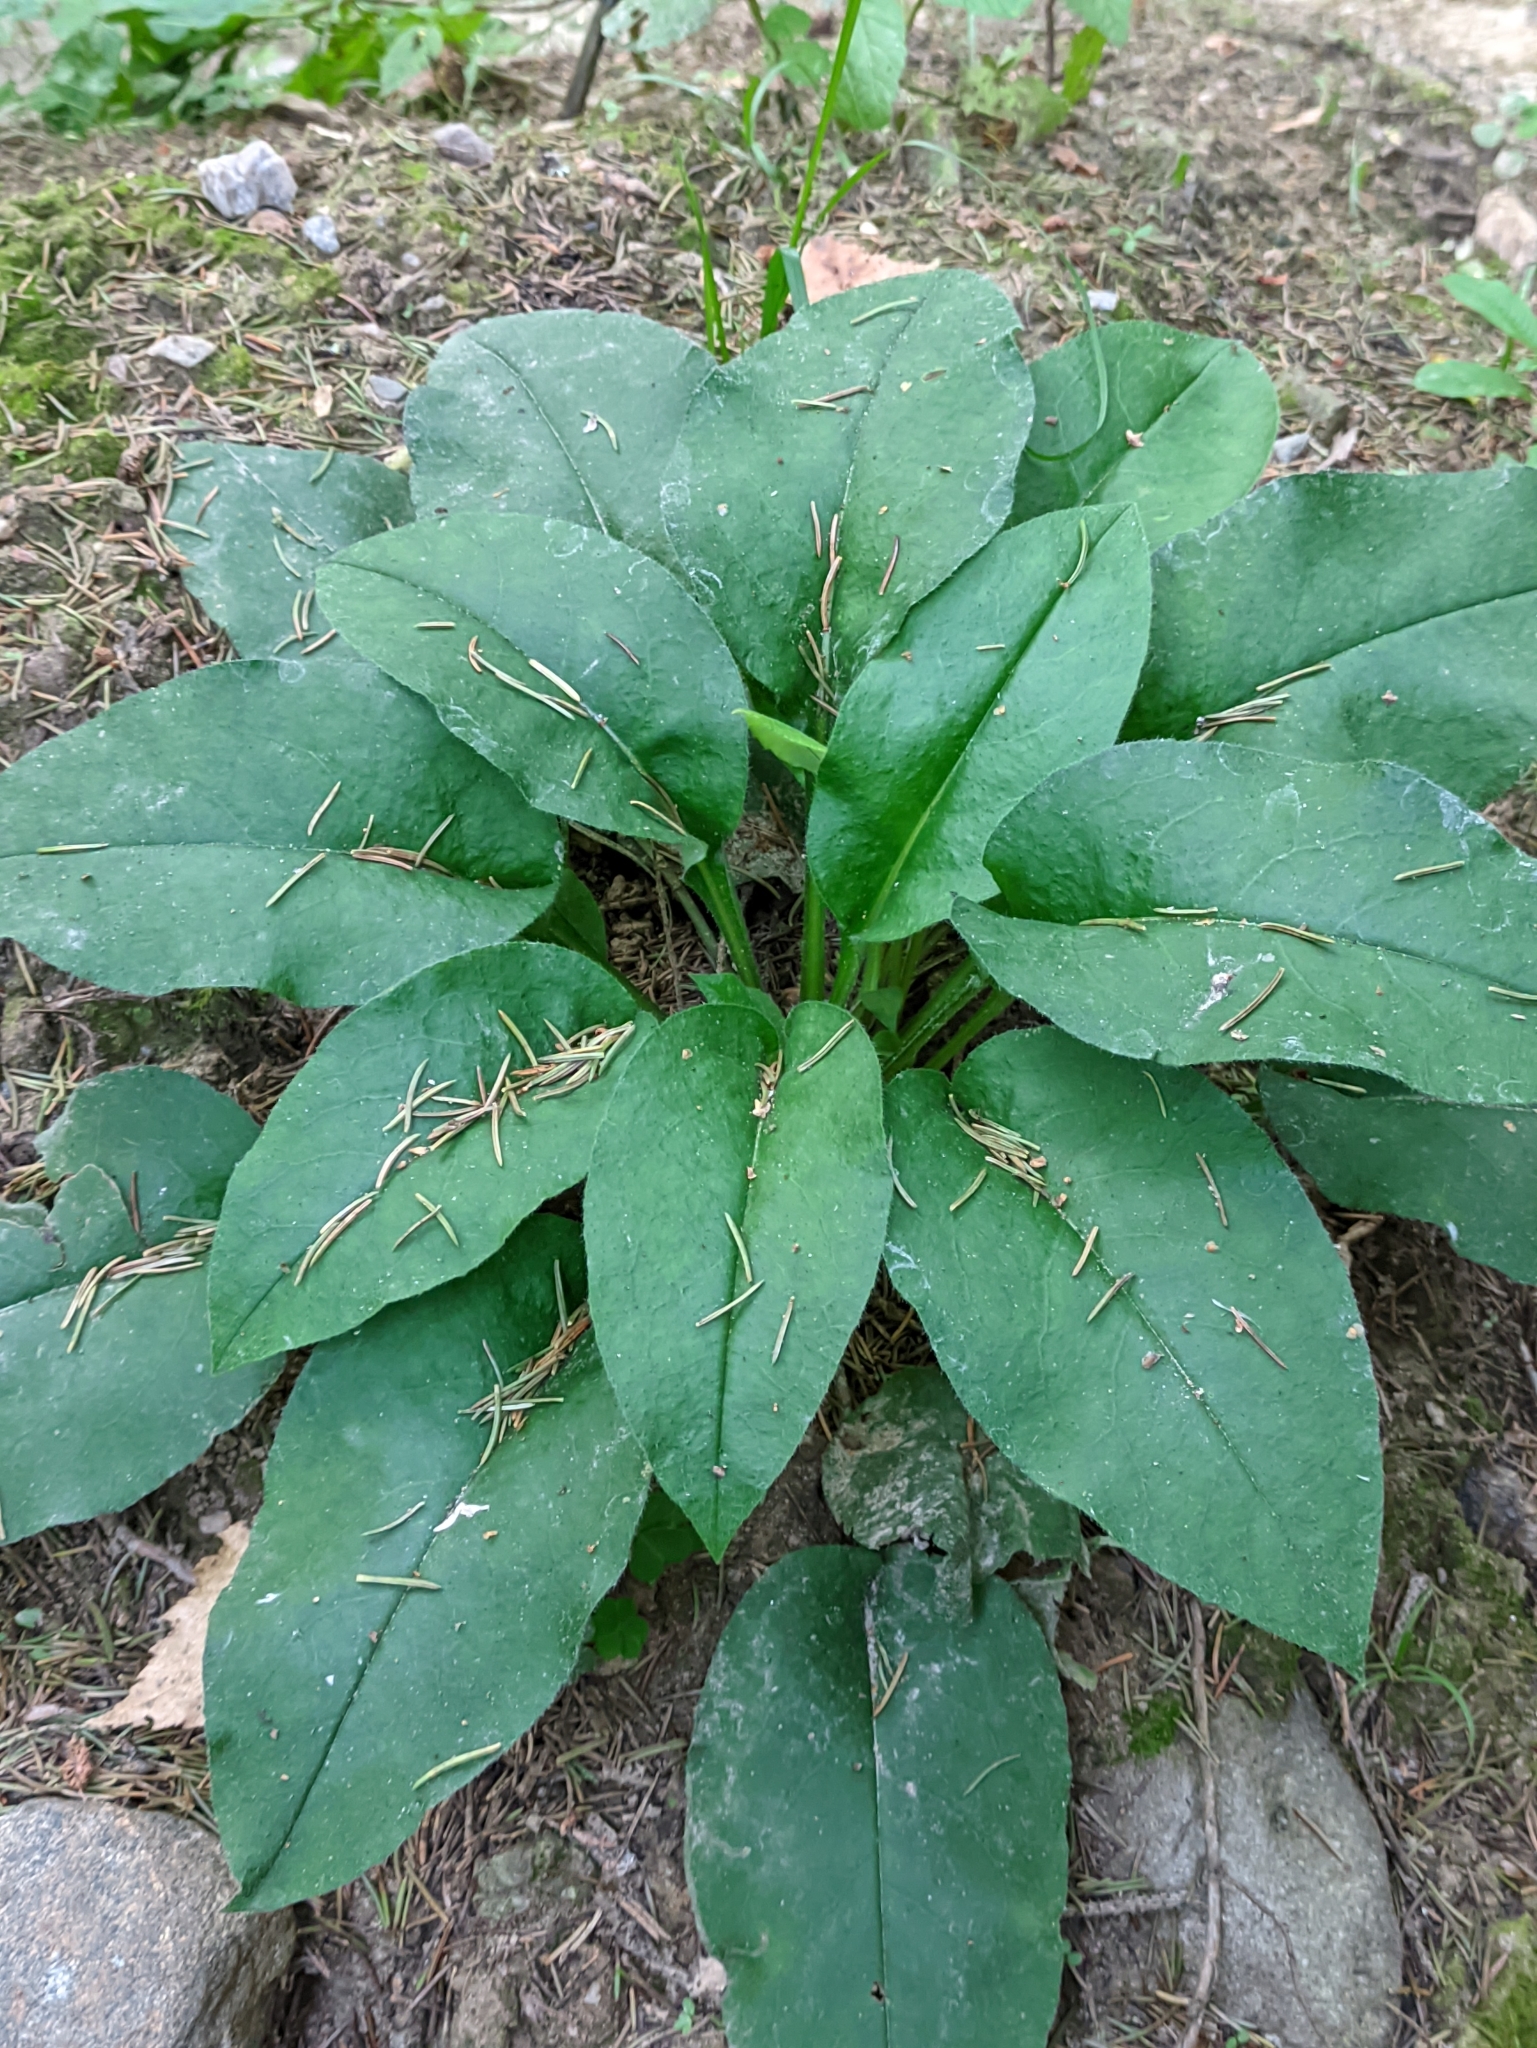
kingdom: Plantae
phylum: Tracheophyta
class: Magnoliopsida
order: Boraginales
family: Boraginaceae
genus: Pulmonaria
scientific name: Pulmonaria obscura
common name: Suffolk lungwort
